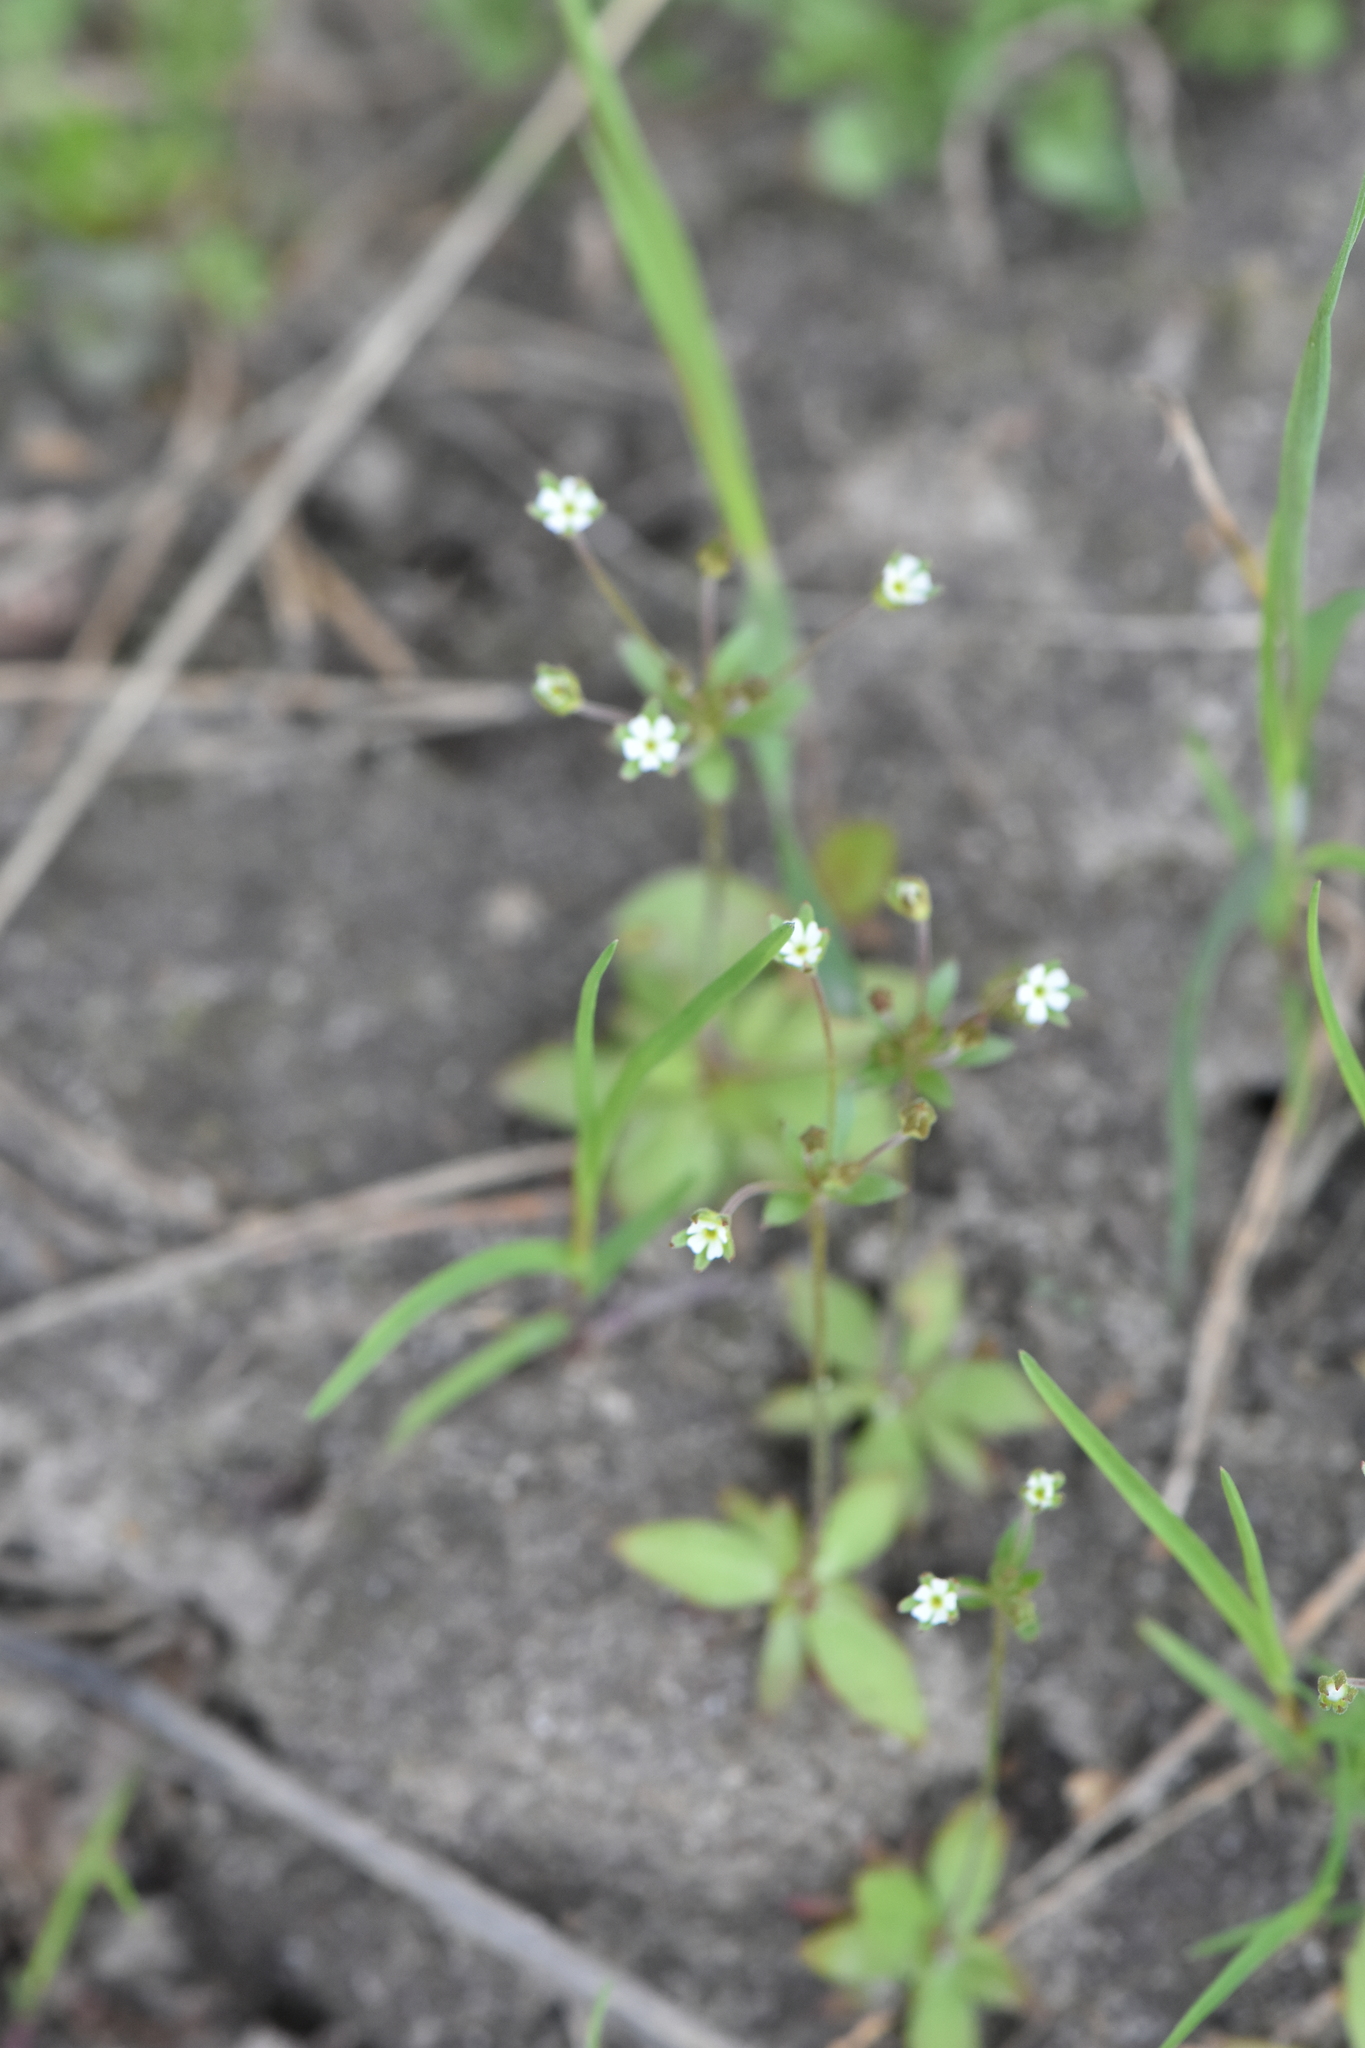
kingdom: Plantae
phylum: Tracheophyta
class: Magnoliopsida
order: Ericales
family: Primulaceae
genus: Androsace
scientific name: Androsace elongata
